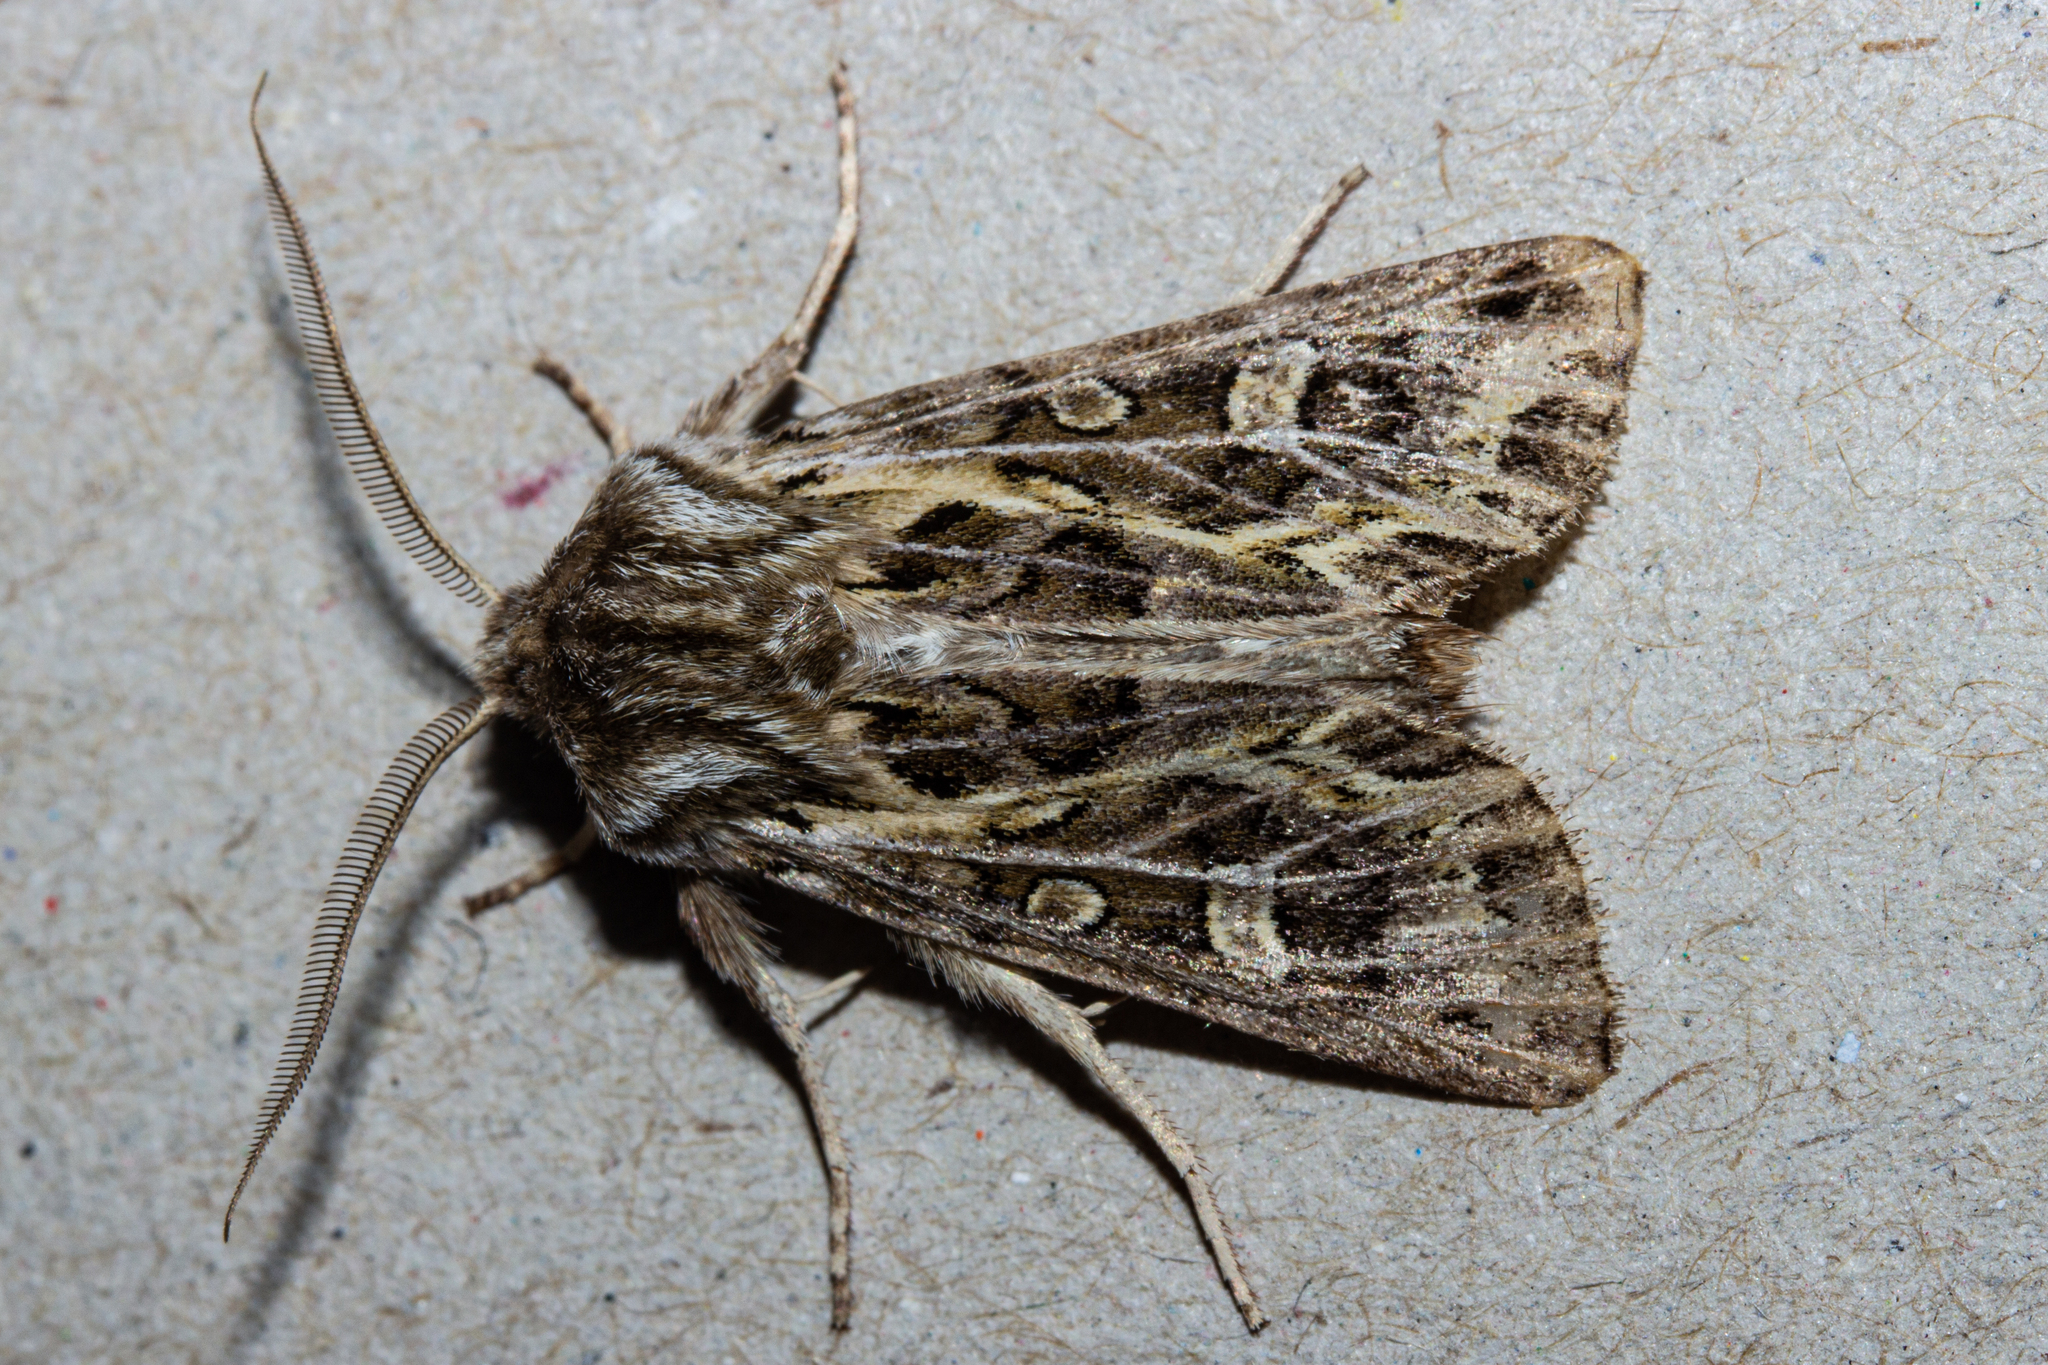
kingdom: Animalia
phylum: Arthropoda
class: Insecta
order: Lepidoptera
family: Noctuidae
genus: Ichneutica
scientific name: Ichneutica
